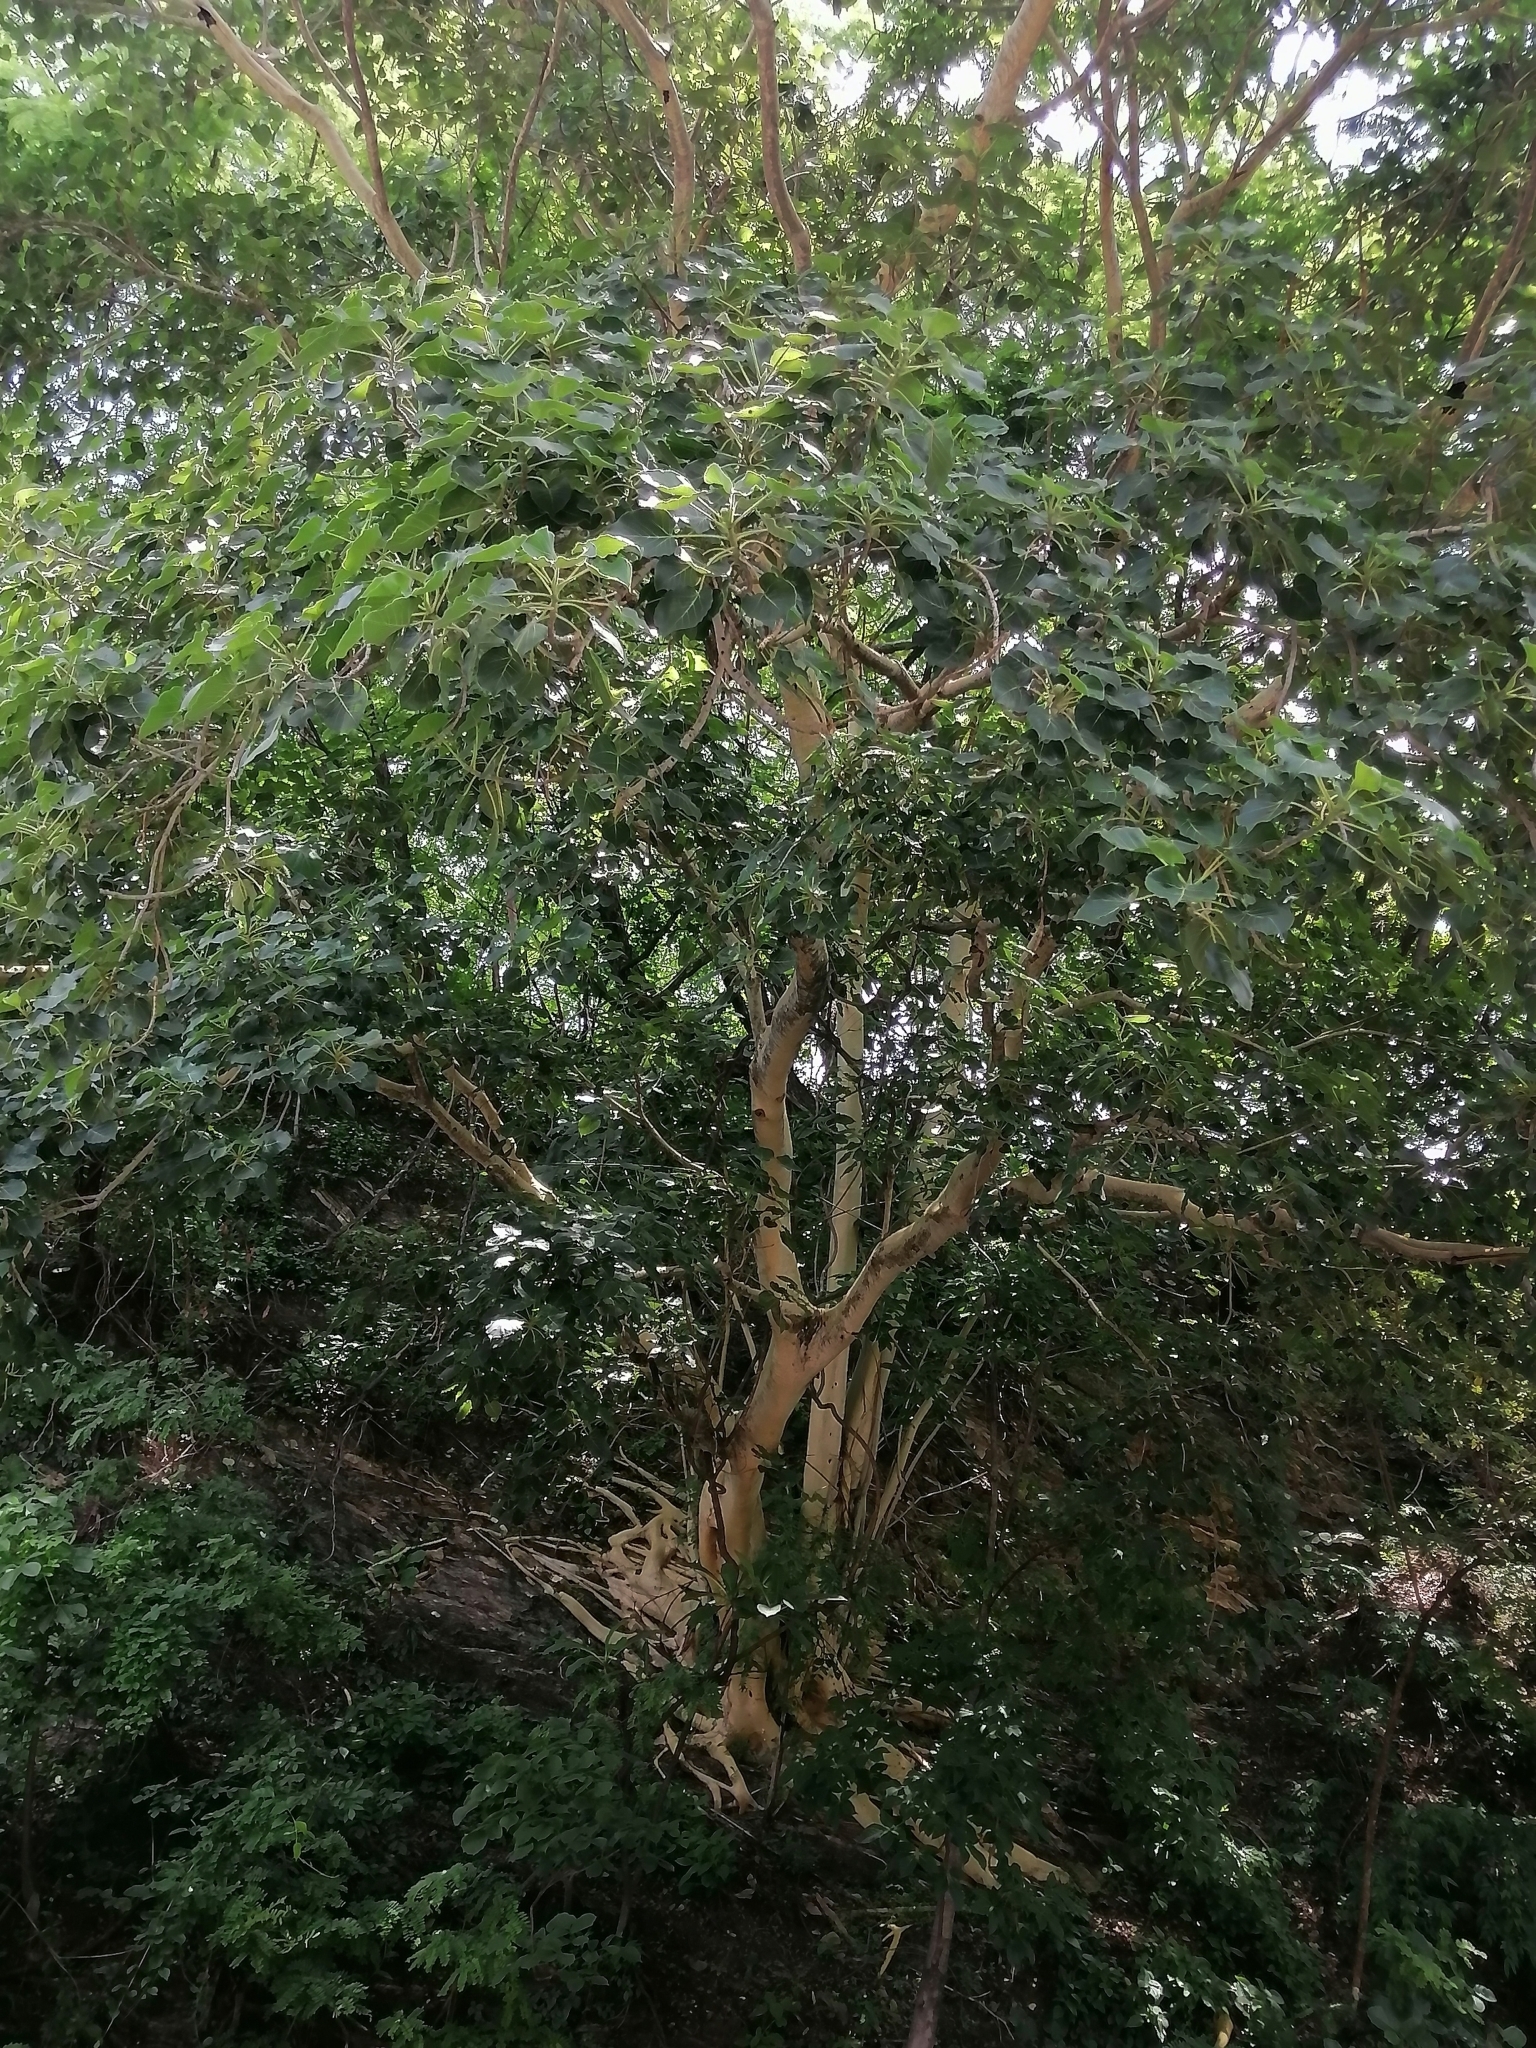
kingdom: Plantae
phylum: Tracheophyta
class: Magnoliopsida
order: Rosales
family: Moraceae
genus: Ficus
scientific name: Ficus petiolaris
